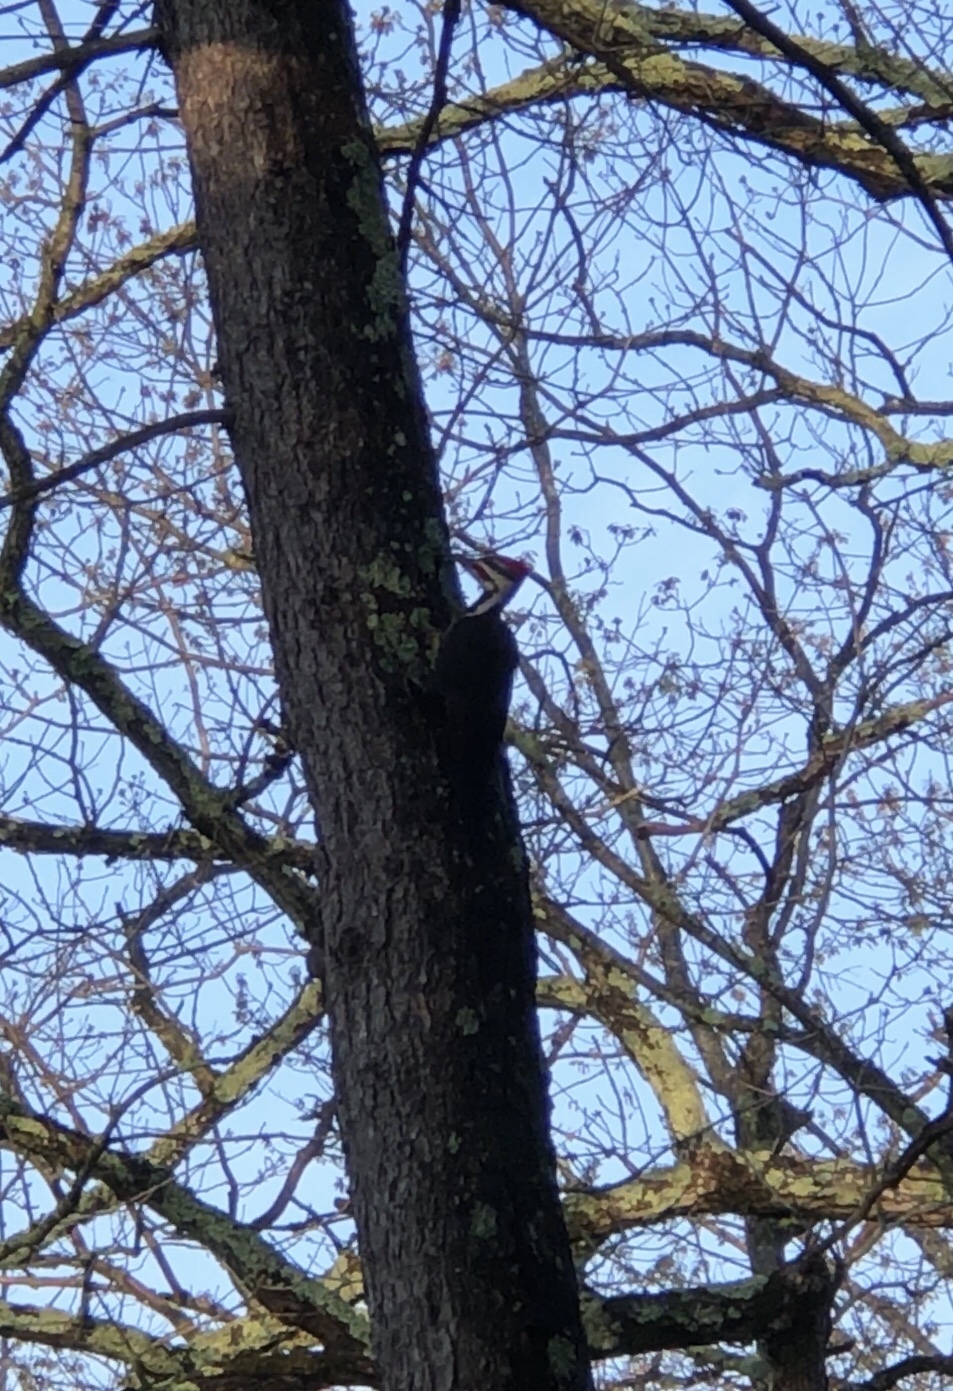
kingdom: Animalia
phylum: Chordata
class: Aves
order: Piciformes
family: Picidae
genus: Dryocopus
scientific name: Dryocopus pileatus
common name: Pileated woodpecker
